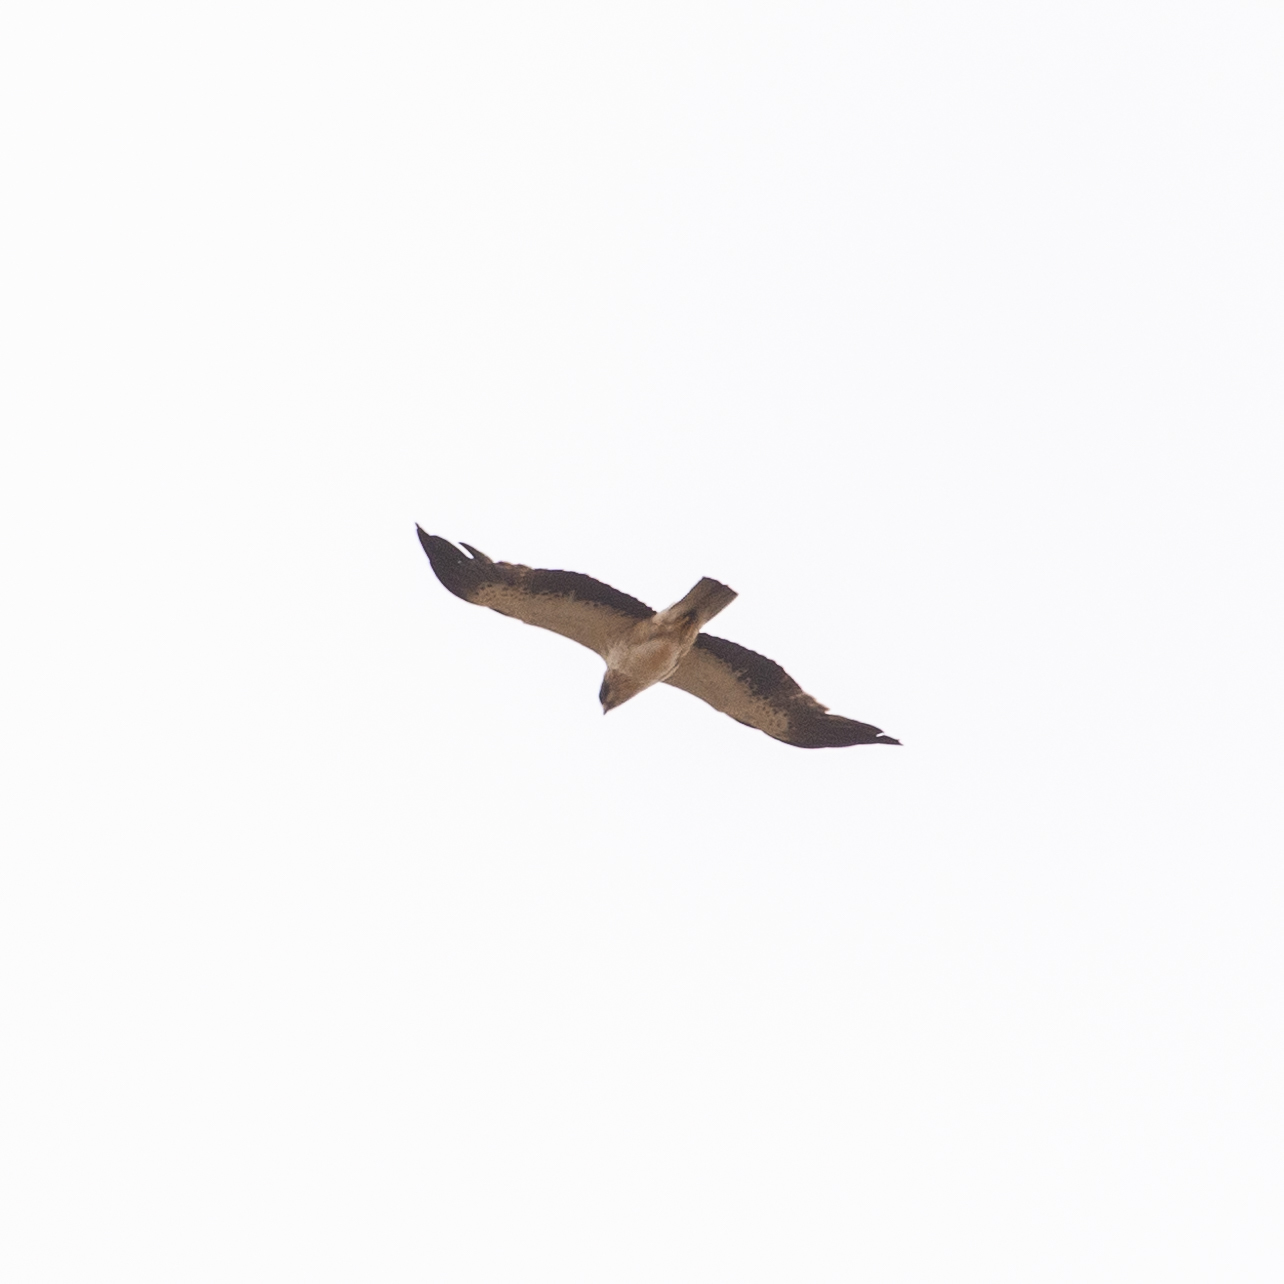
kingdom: Animalia
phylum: Chordata
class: Aves
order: Accipitriformes
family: Accipitridae
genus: Hieraaetus
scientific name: Hieraaetus pennatus
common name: Booted eagle
